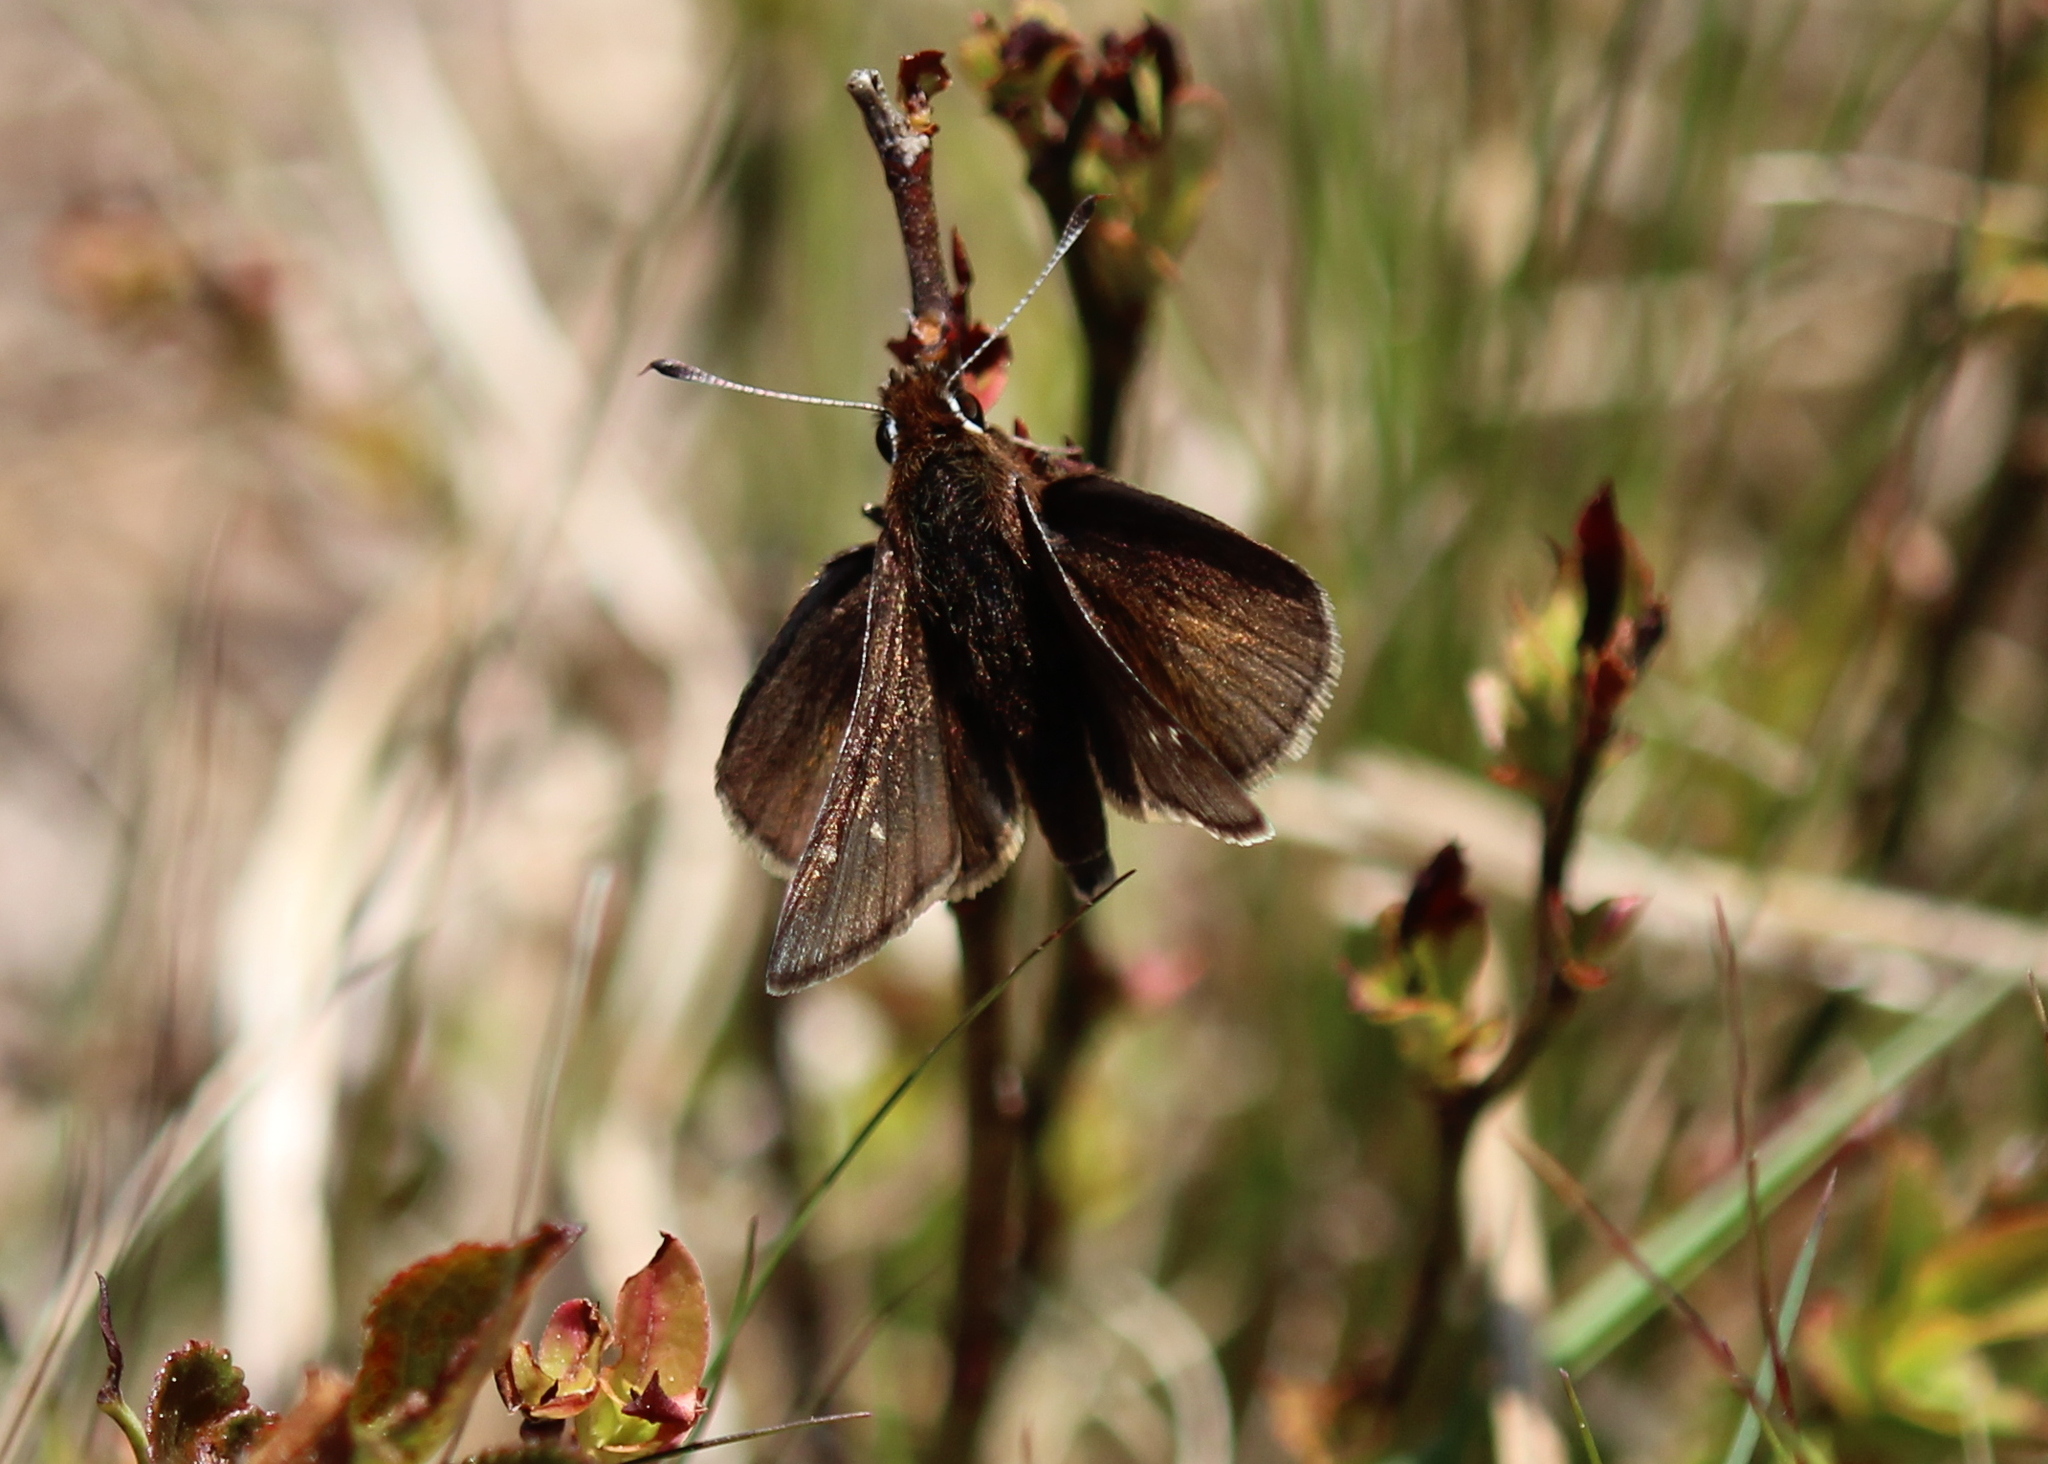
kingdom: Animalia
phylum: Arthropoda
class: Insecta
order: Lepidoptera
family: Hesperiidae
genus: Atrytonopsis
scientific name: Atrytonopsis hianna
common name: Dusted skipper
